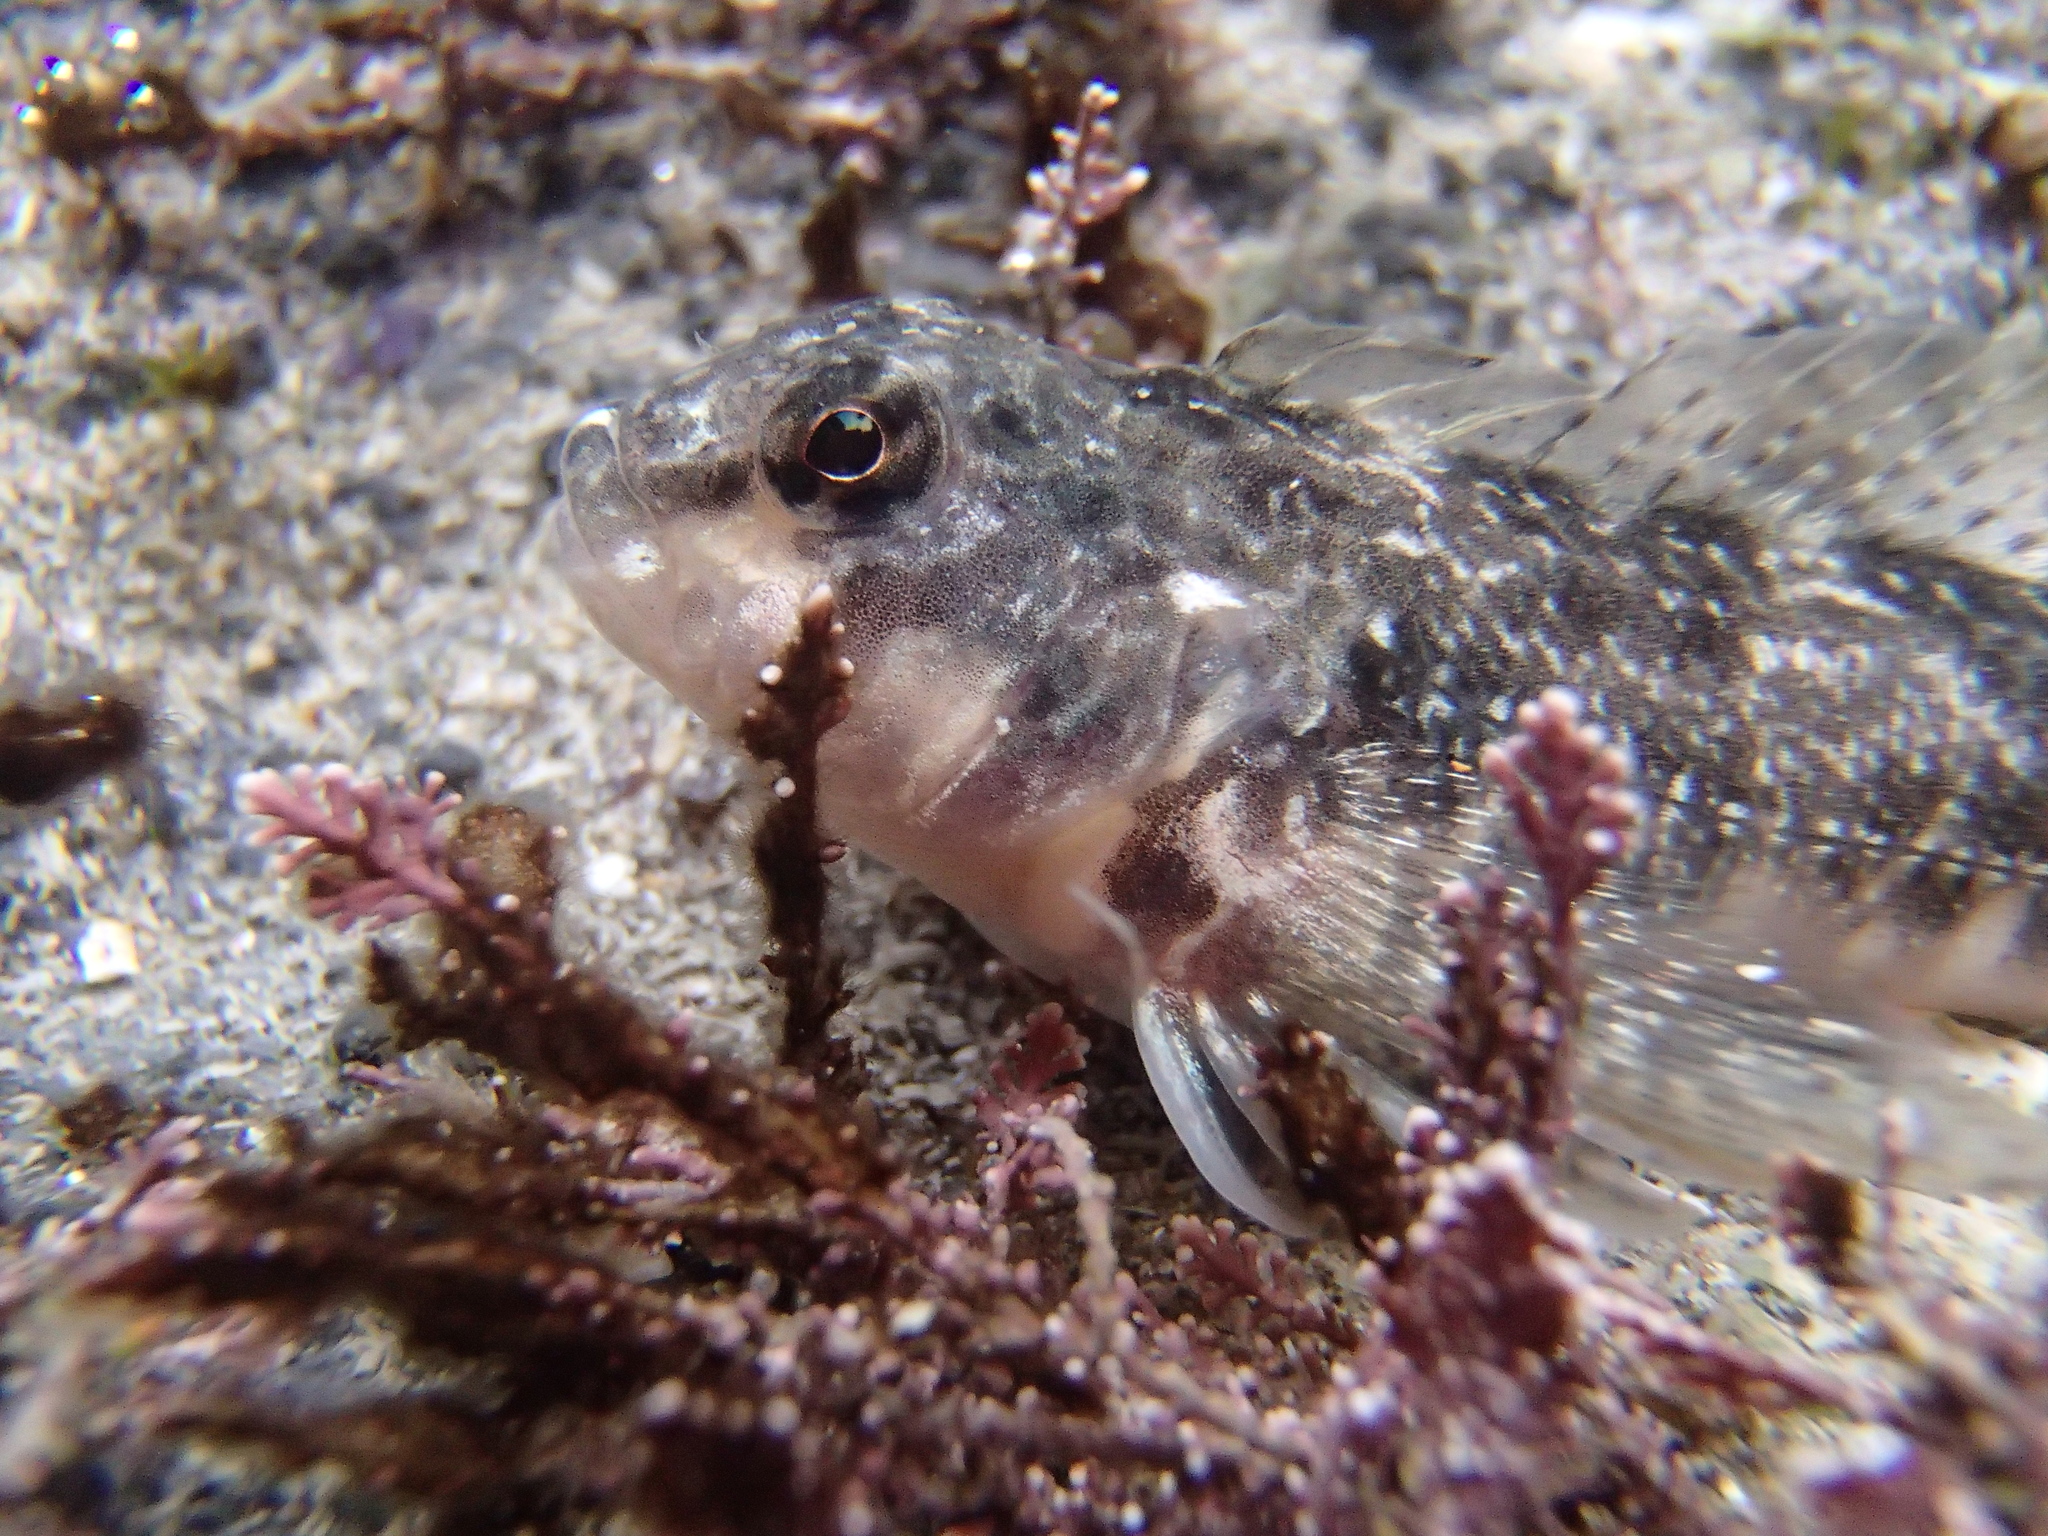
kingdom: Animalia
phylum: Chordata
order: Perciformes
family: Tripterygiidae
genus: Bellapiscis
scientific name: Bellapiscis medius
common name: Twister
